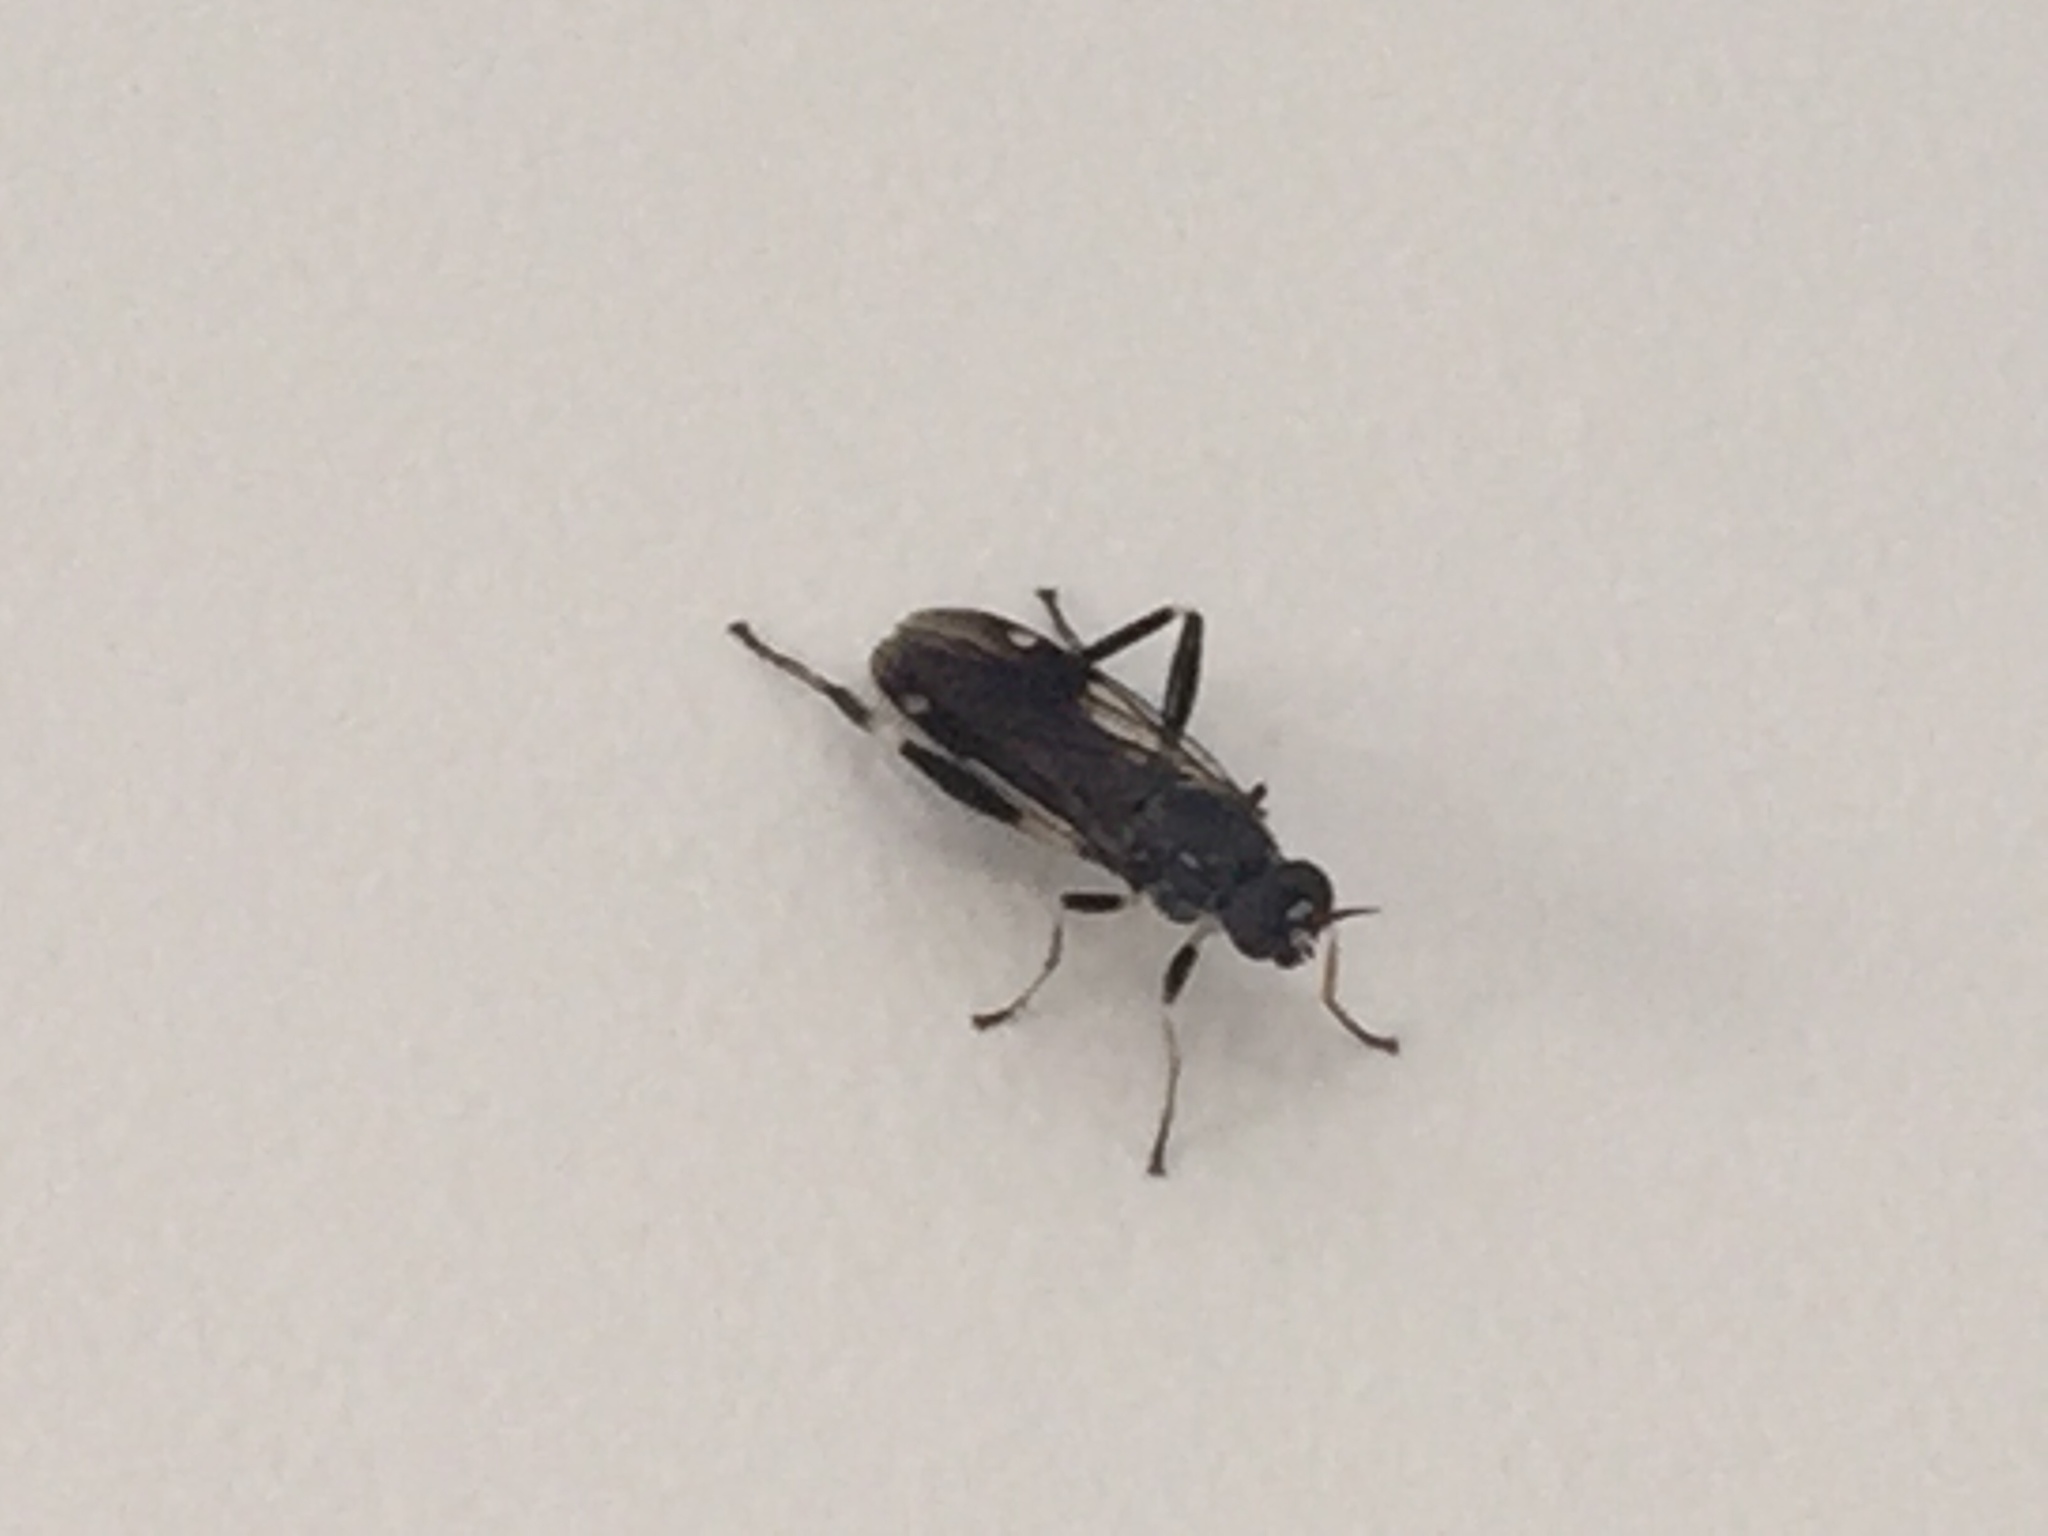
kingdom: Animalia
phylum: Arthropoda
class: Insecta
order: Diptera
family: Stratiomyidae
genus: Exaireta
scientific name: Exaireta spinigera
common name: Blue soldier fly
